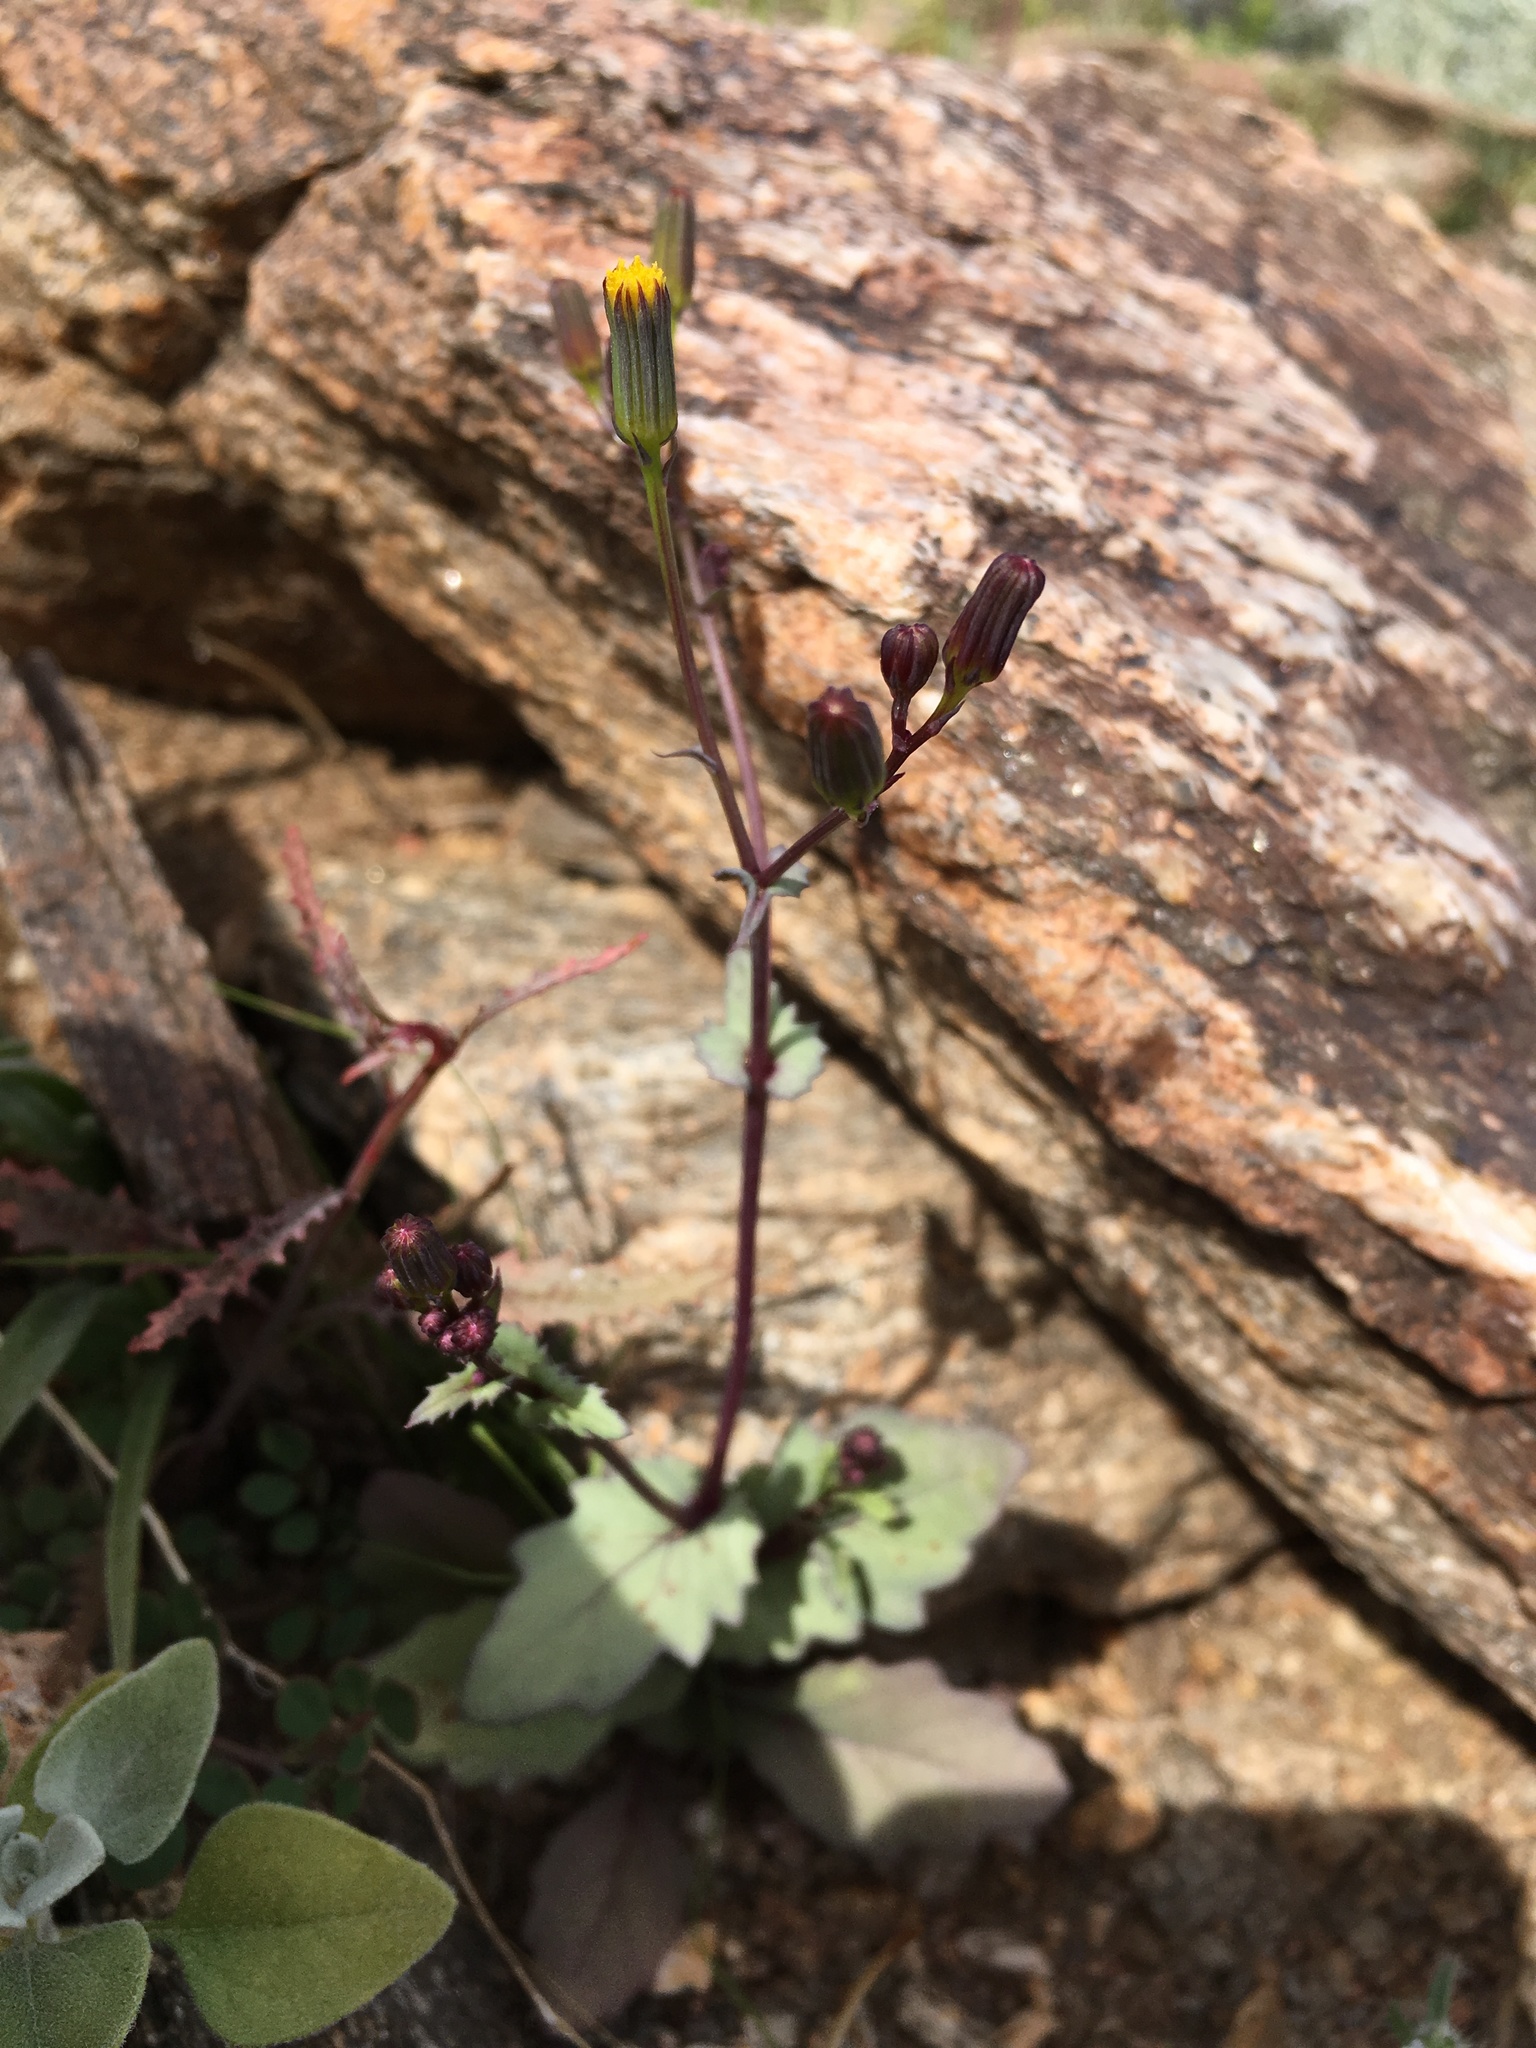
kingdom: Plantae
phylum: Tracheophyta
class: Magnoliopsida
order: Asterales
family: Asteraceae
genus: Senecio
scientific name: Senecio mohavensis
